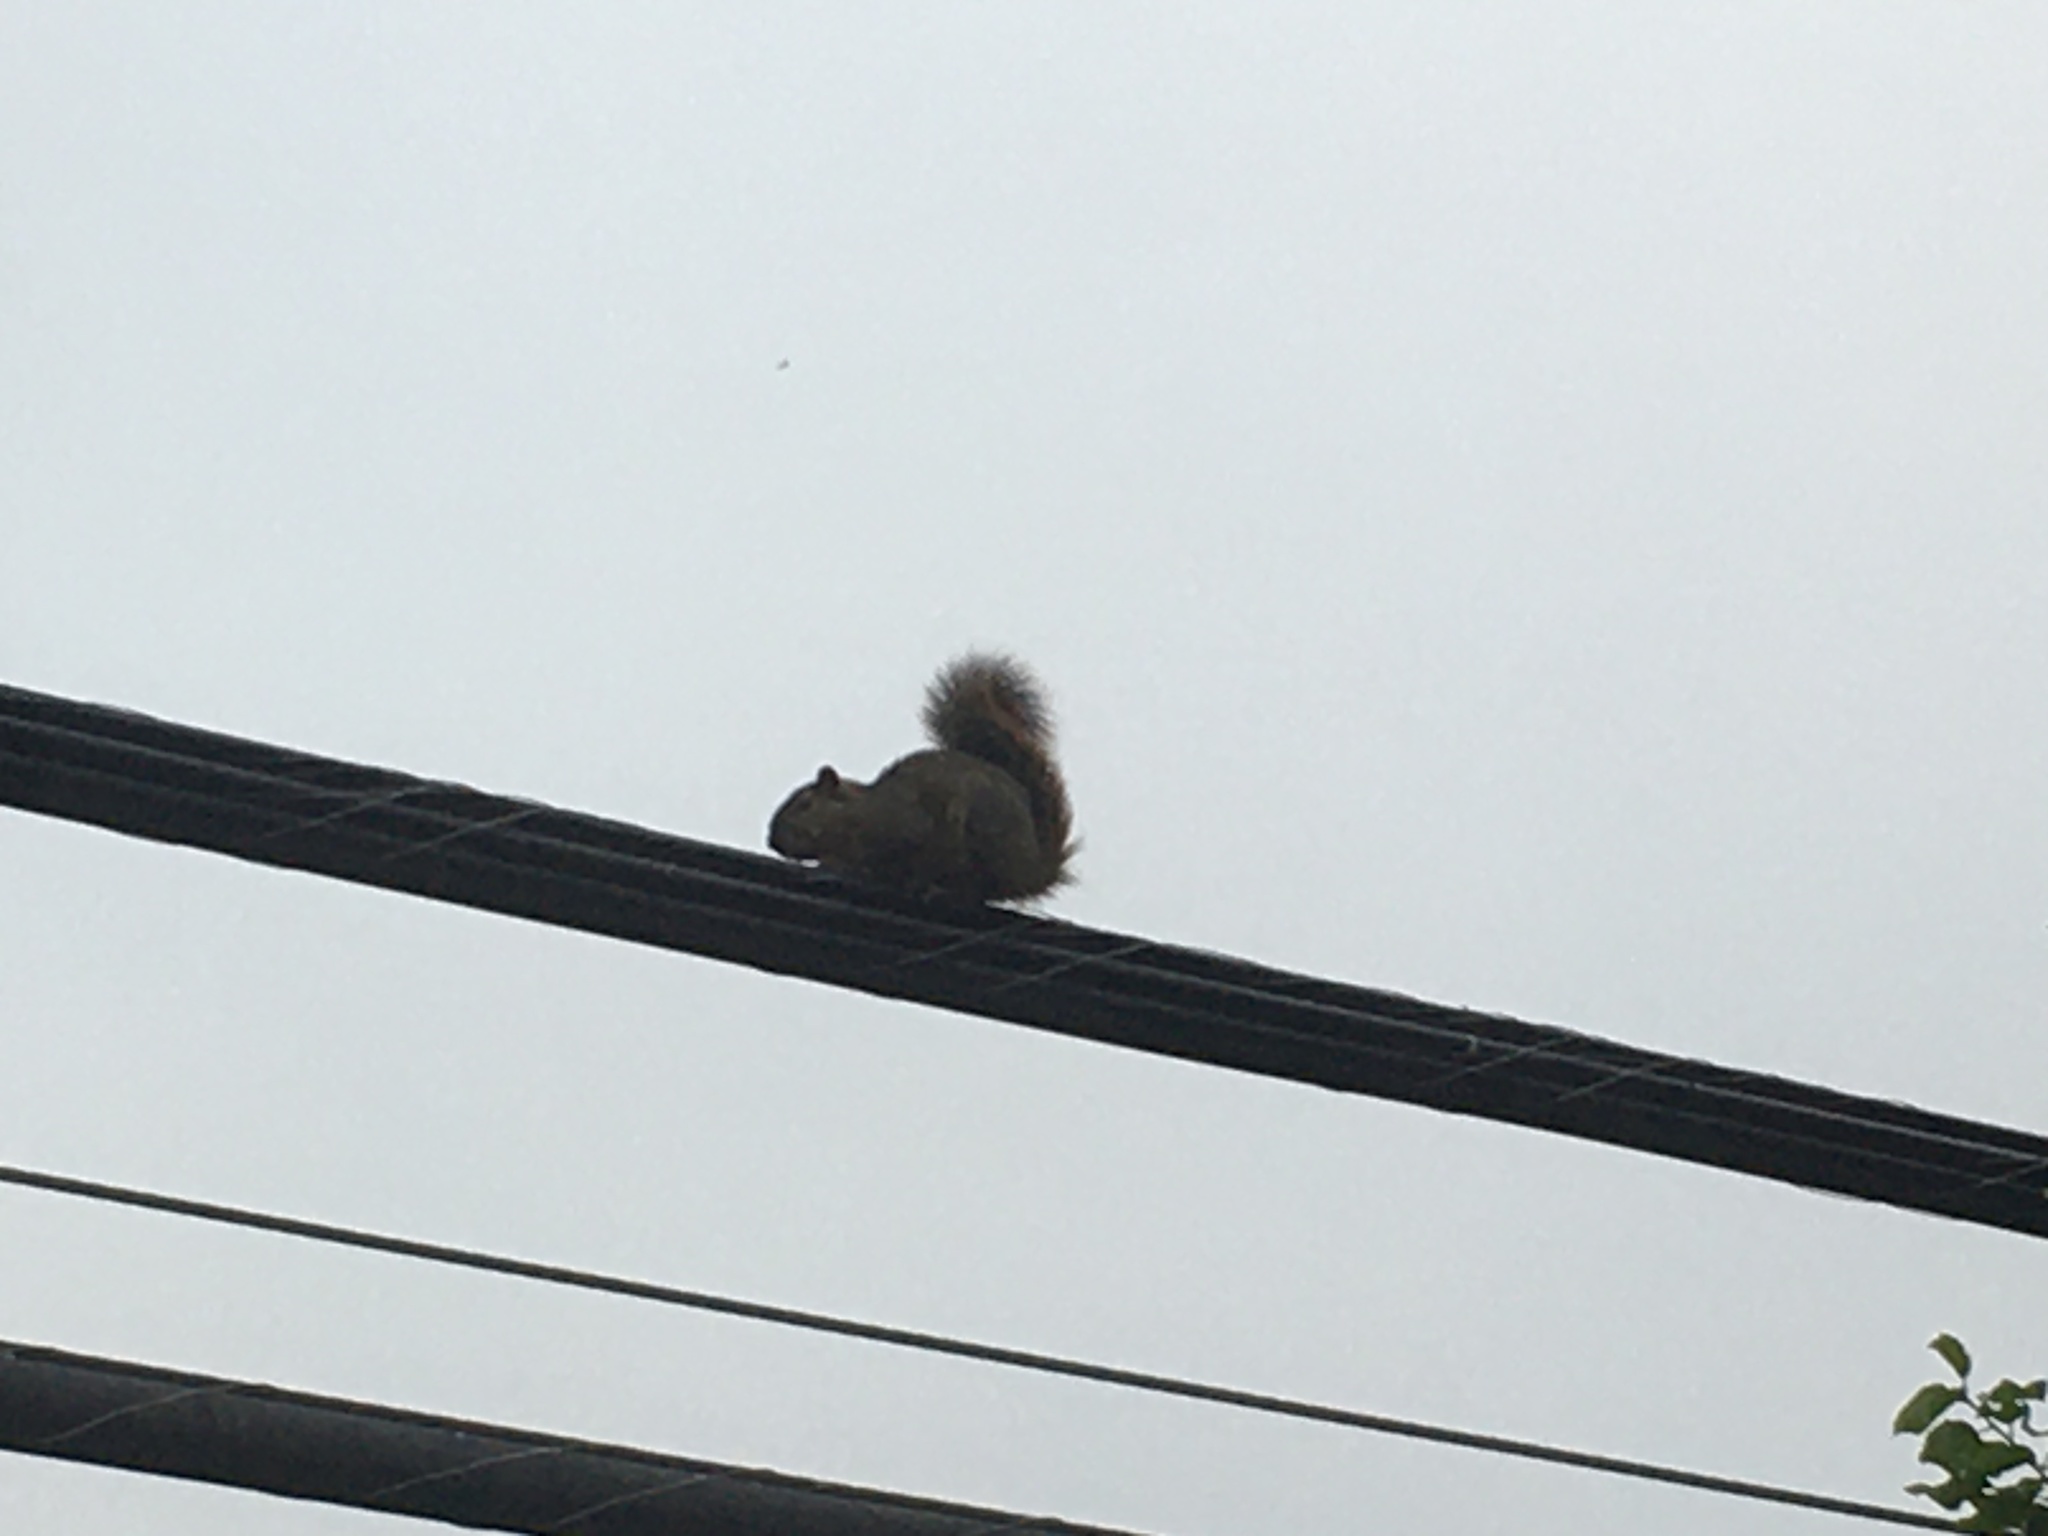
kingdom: Animalia
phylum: Chordata
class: Mammalia
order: Rodentia
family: Sciuridae
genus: Sciurus
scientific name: Sciurus niger
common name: Fox squirrel
